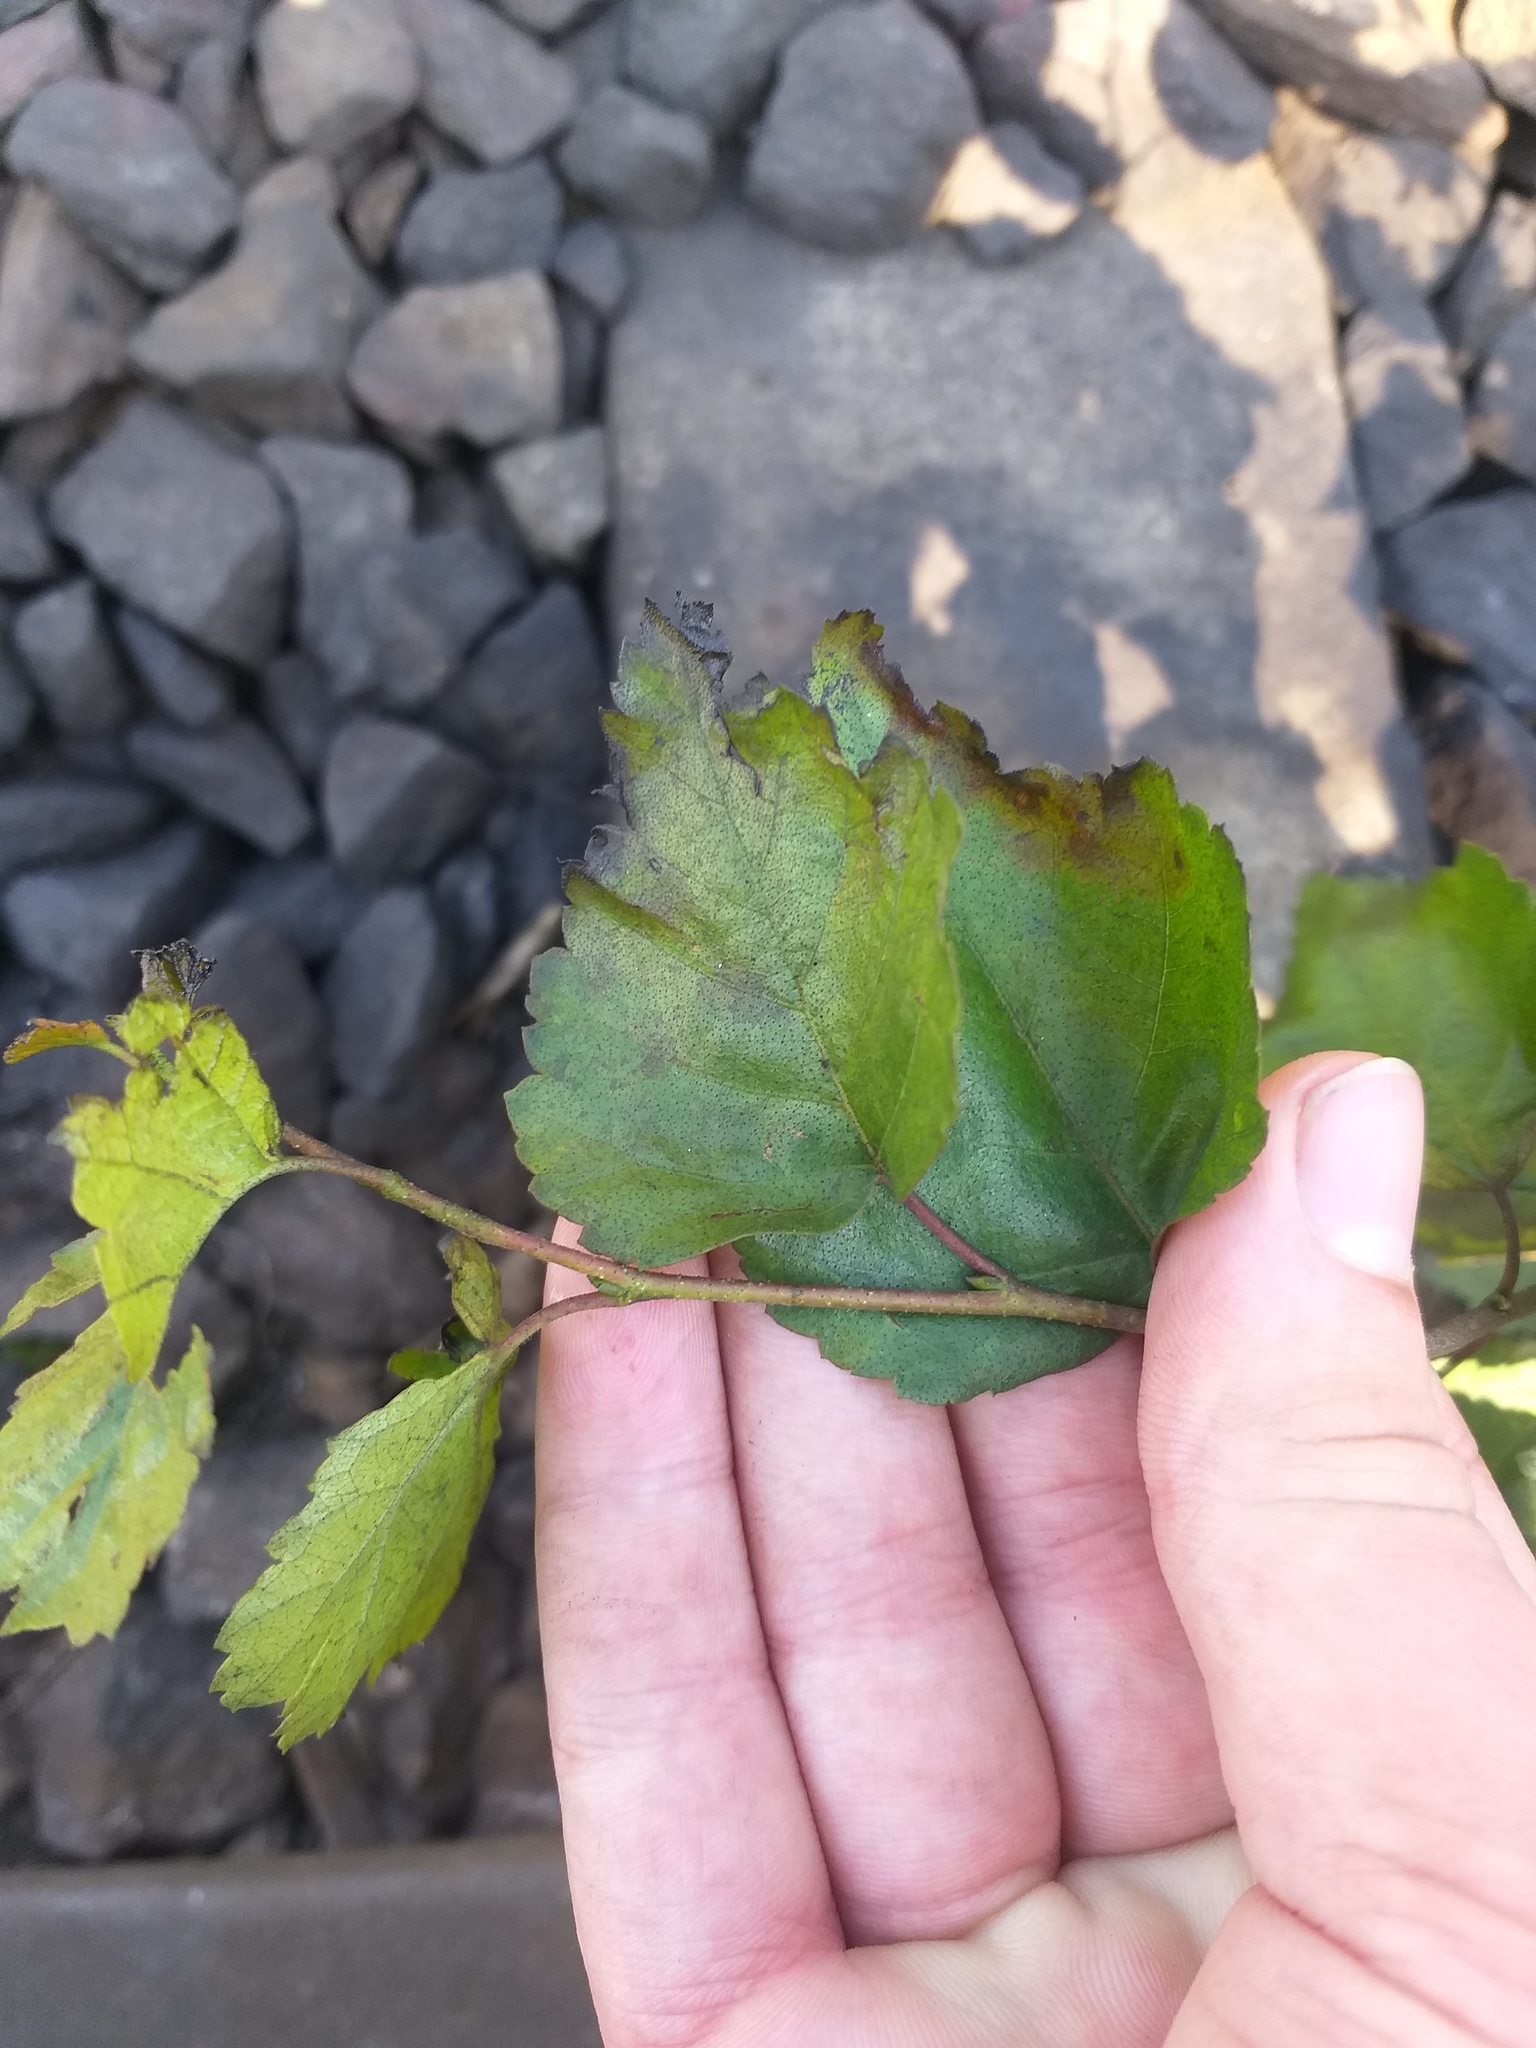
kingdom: Plantae
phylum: Tracheophyta
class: Magnoliopsida
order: Fagales
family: Betulaceae
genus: Betula
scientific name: Betula pendula
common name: Silver birch
